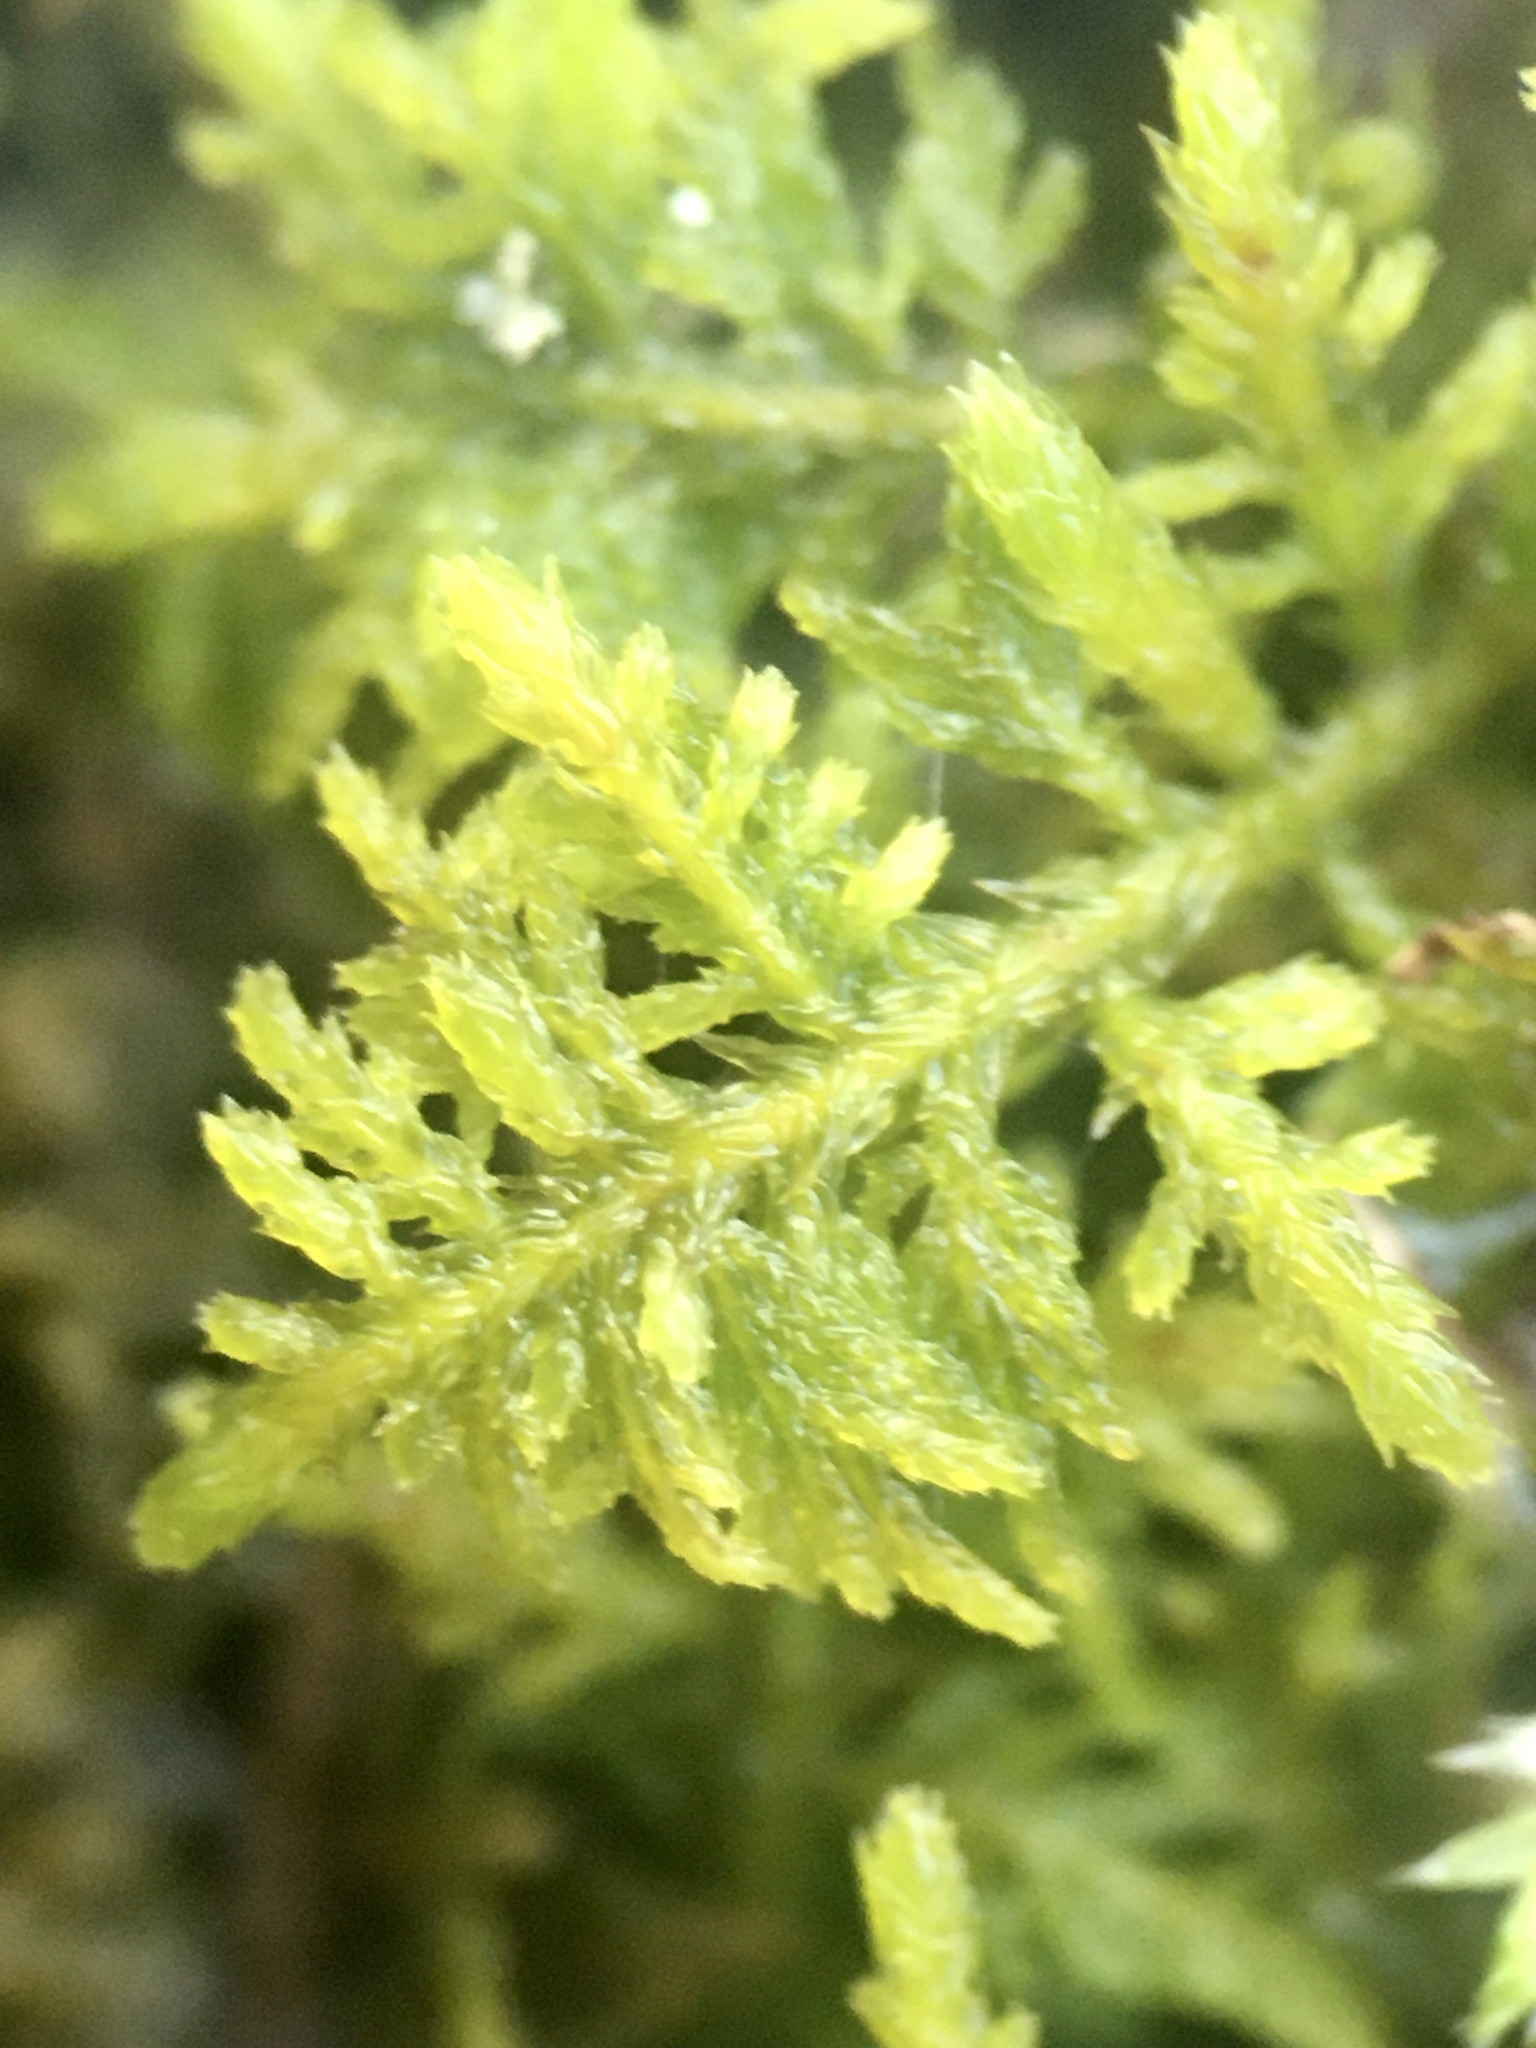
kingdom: Plantae
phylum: Bryophyta
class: Bryopsida
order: Hypnales
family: Thuidiaceae
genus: Thuidium
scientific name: Thuidium delicatulum
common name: Delicate fern moss
